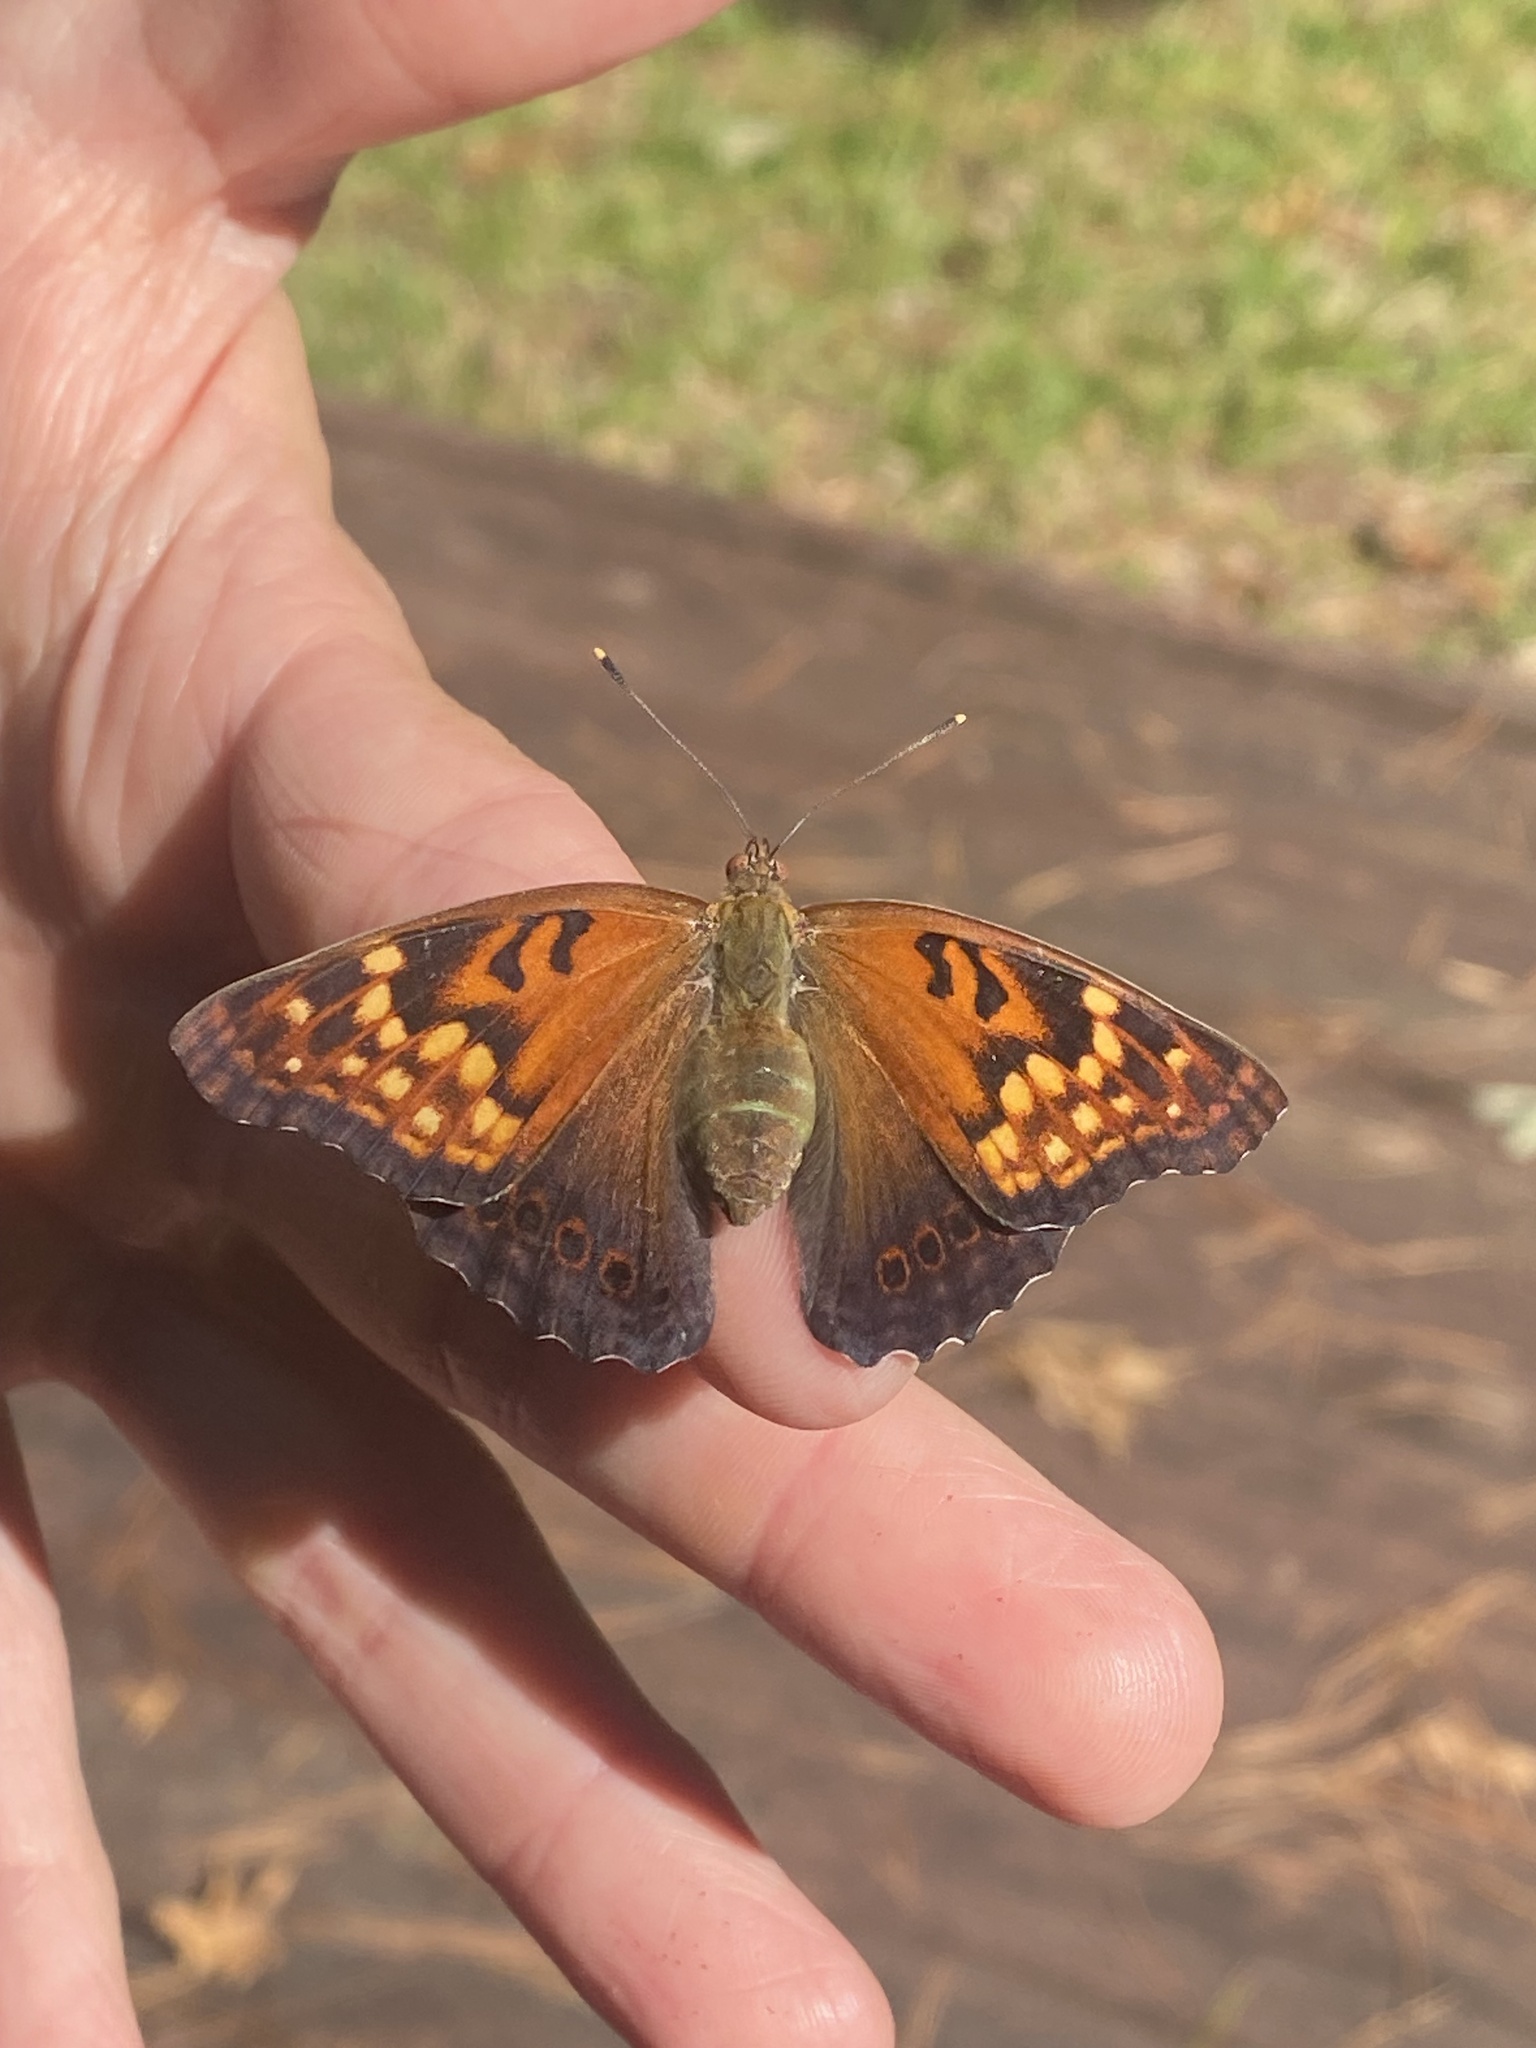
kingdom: Animalia
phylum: Arthropoda
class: Insecta
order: Lepidoptera
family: Nymphalidae
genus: Asterocampa
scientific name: Asterocampa clyton
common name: Tawny emperor
